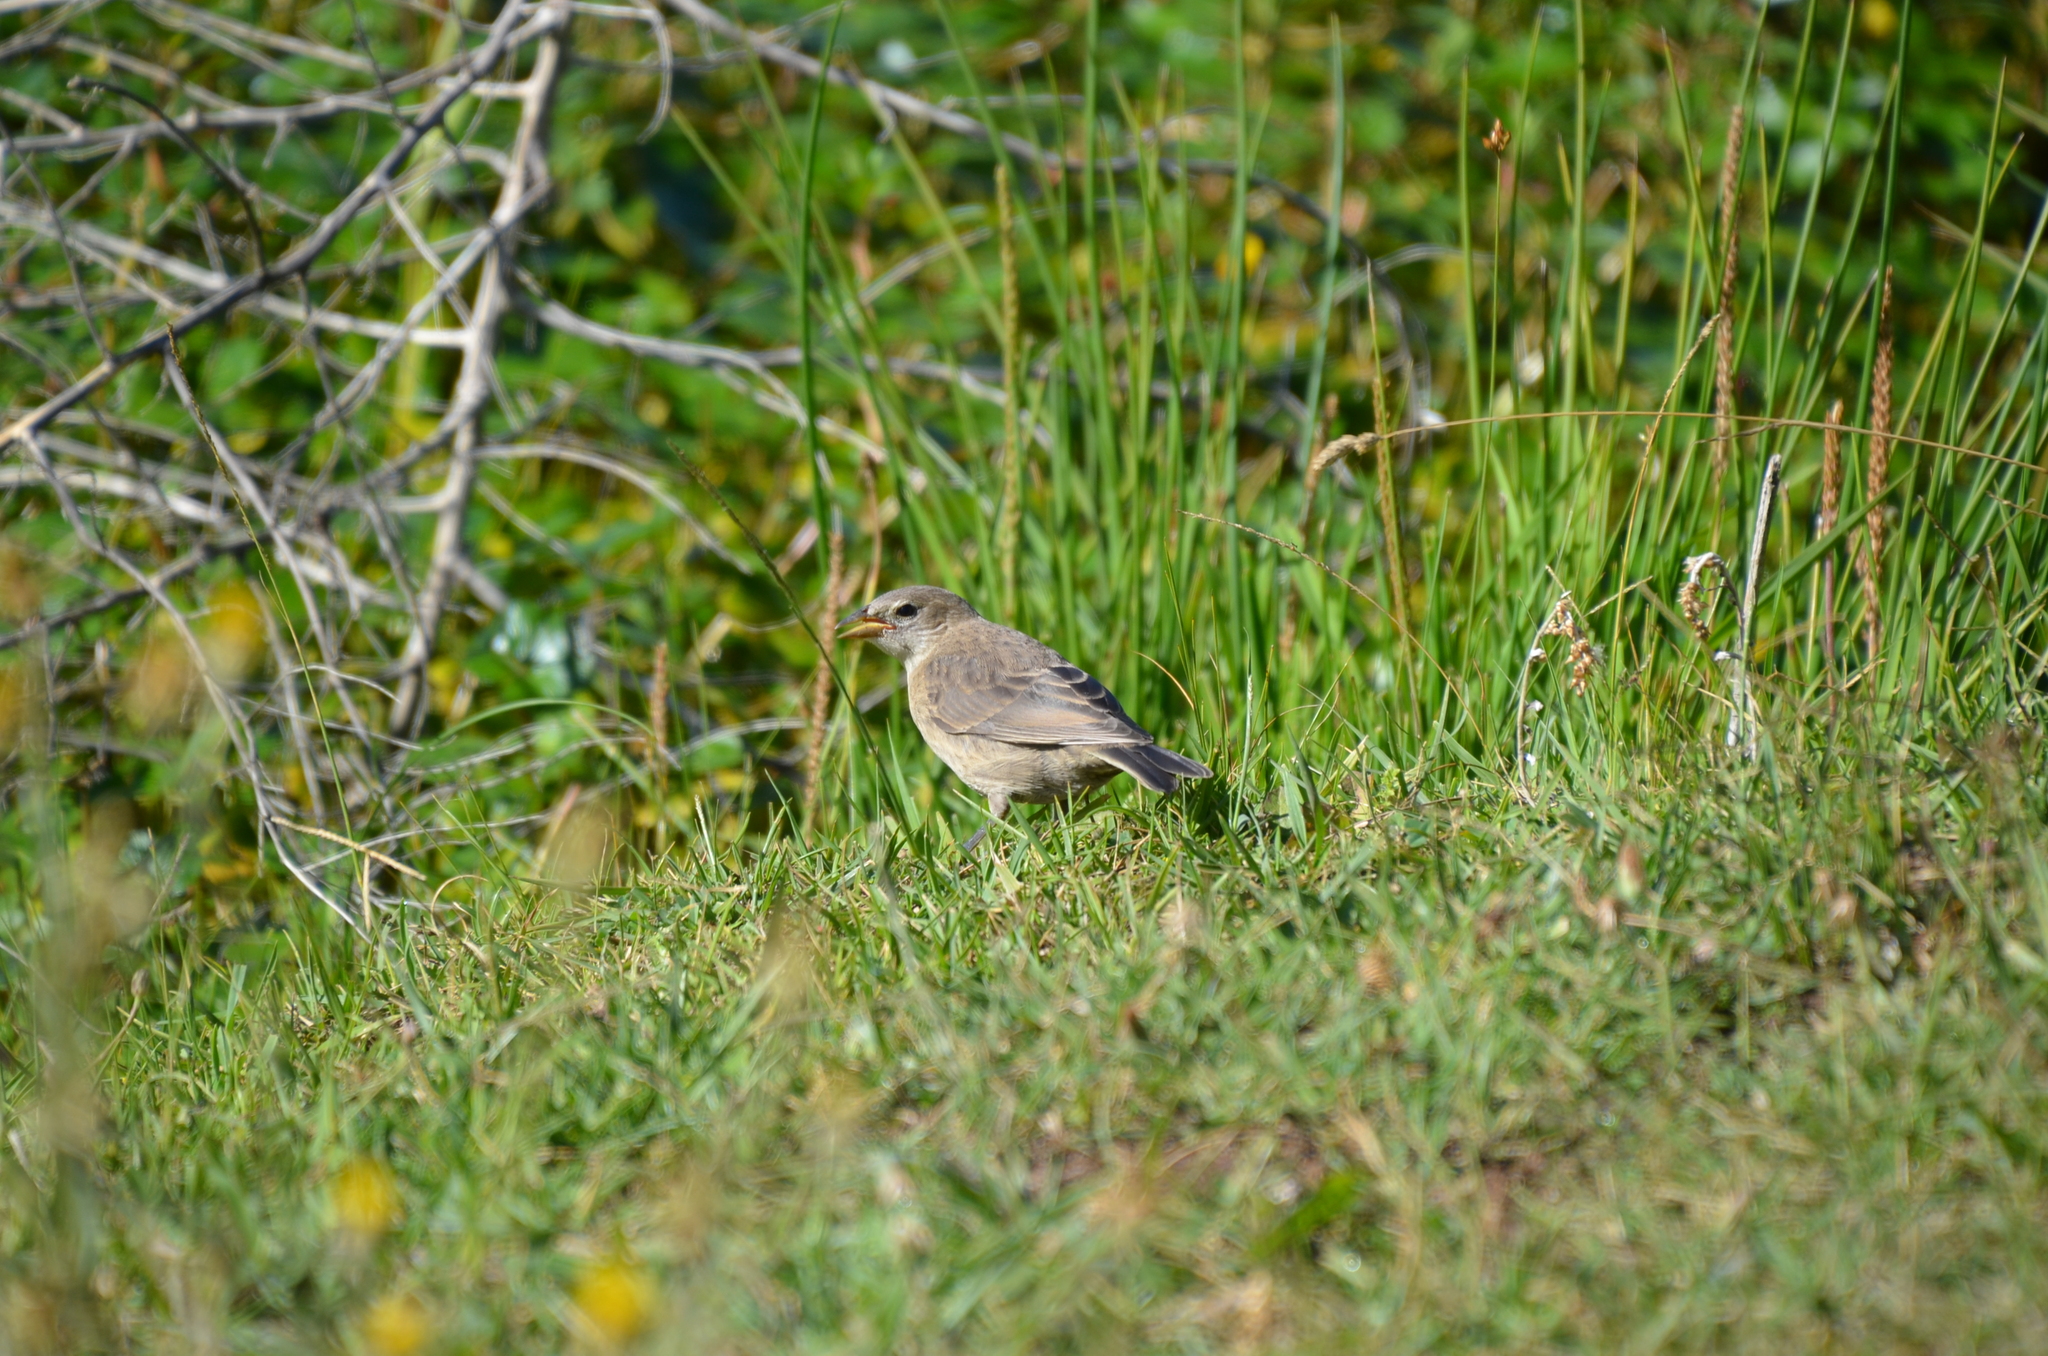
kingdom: Animalia
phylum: Chordata
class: Aves
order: Passeriformes
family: Thraupidae
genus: Embernagra
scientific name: Embernagra platensis
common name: Pampa finch
